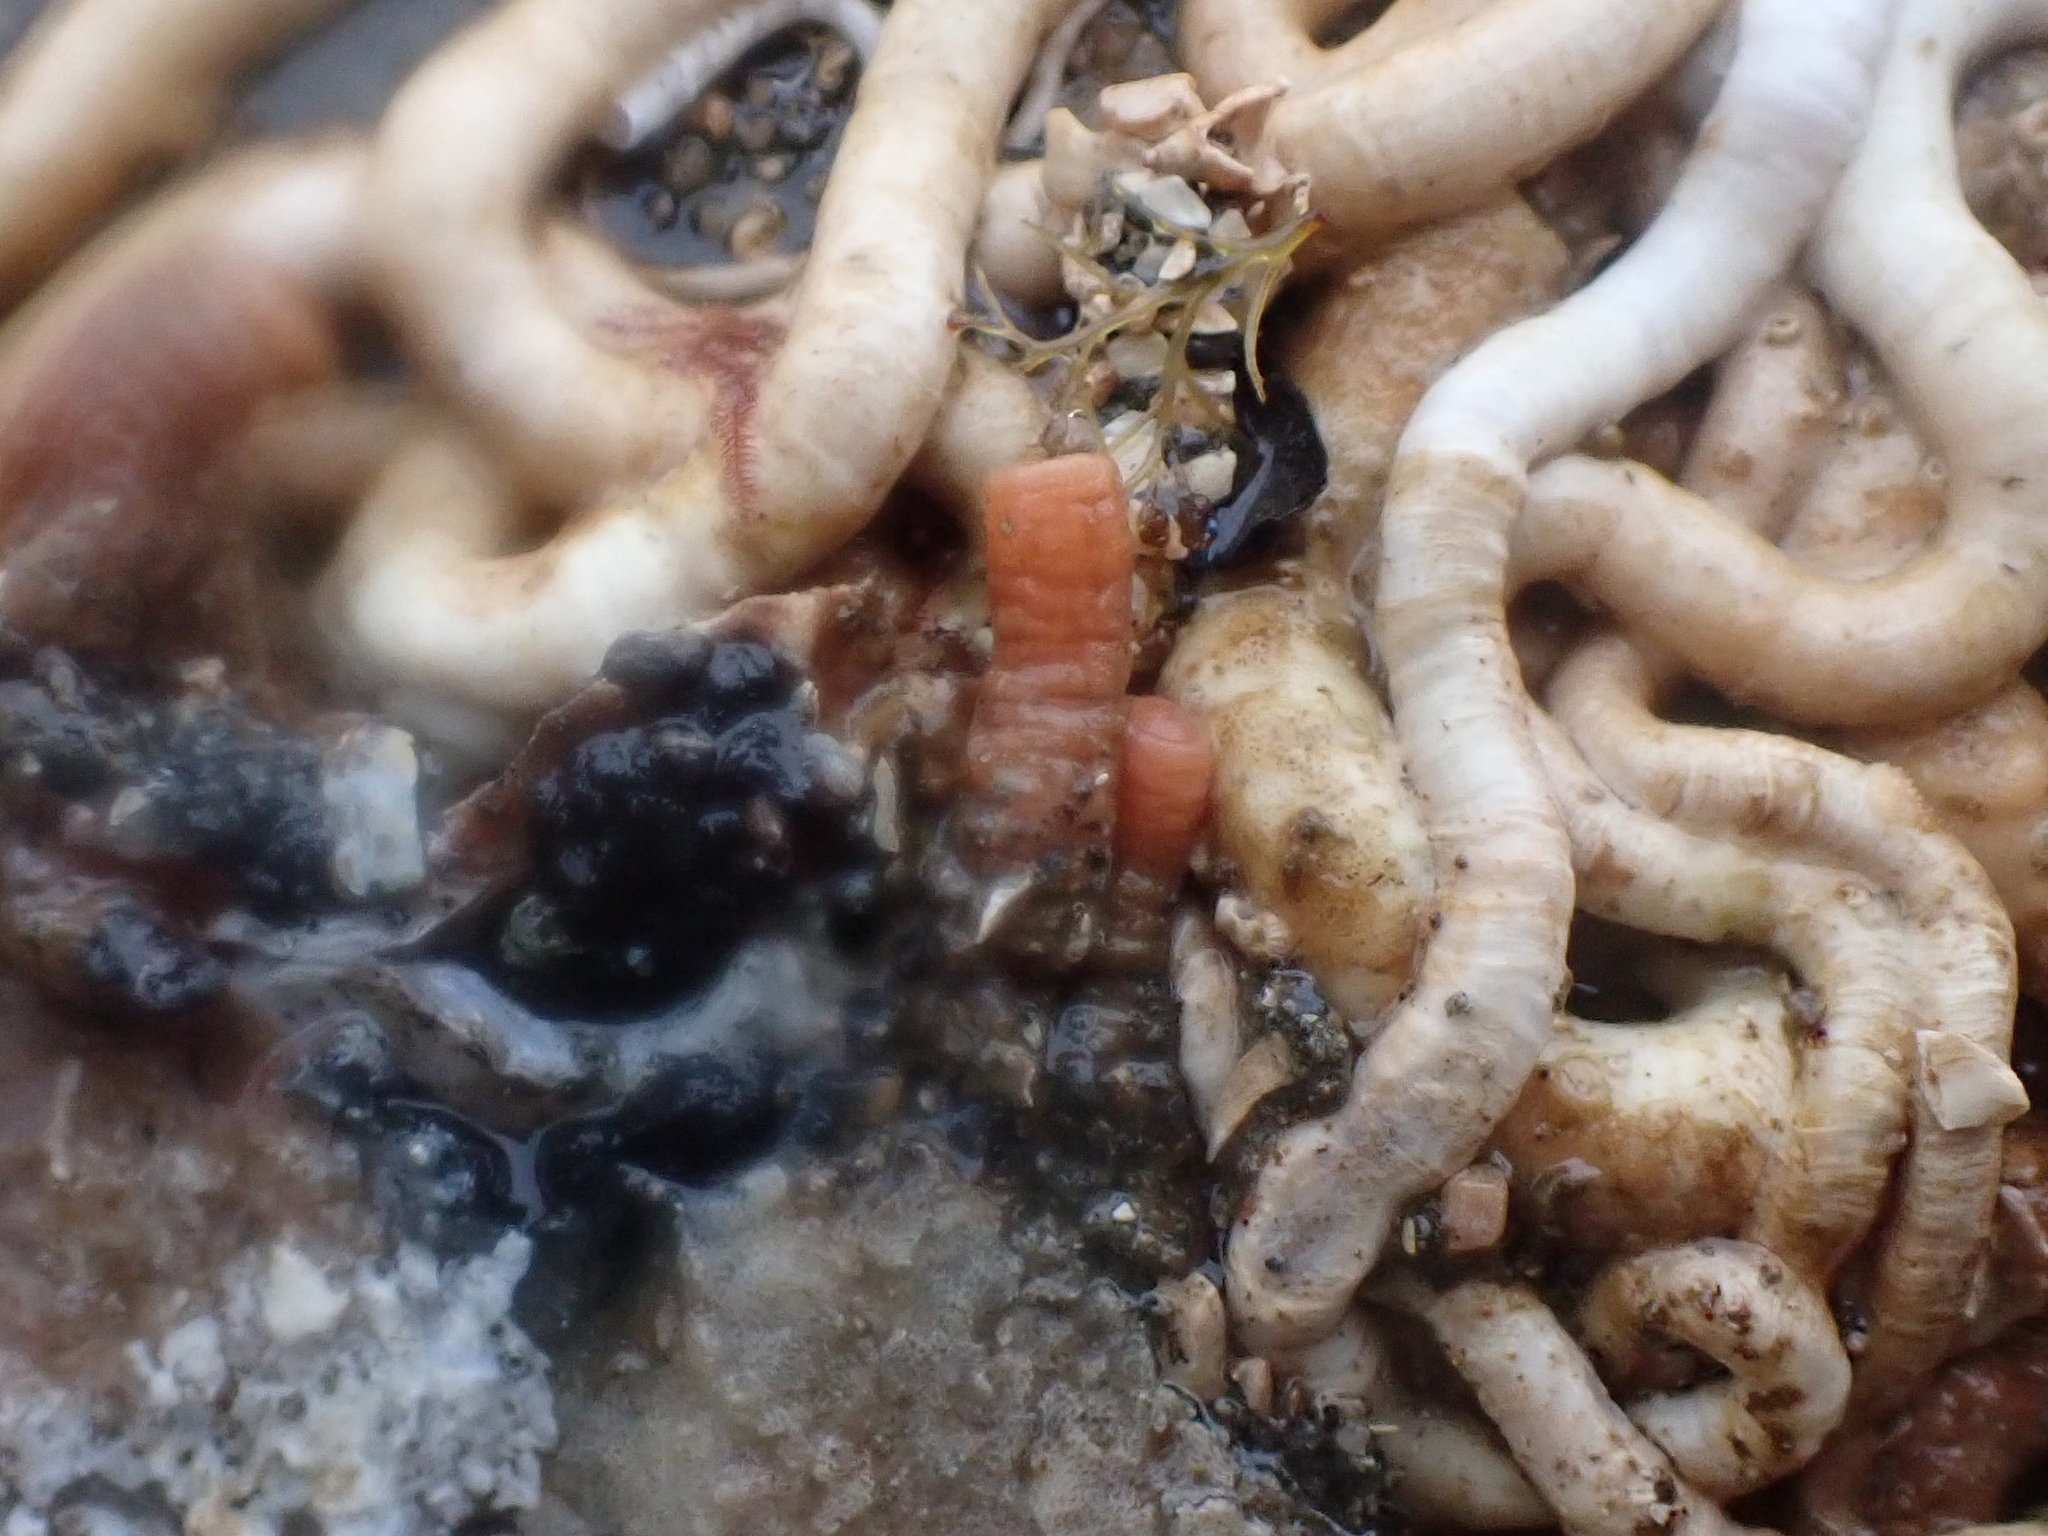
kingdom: Animalia
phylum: Chordata
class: Ascidiacea
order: Stolidobranchia
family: Pyuridae
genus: Pyura
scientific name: Pyura haustor
